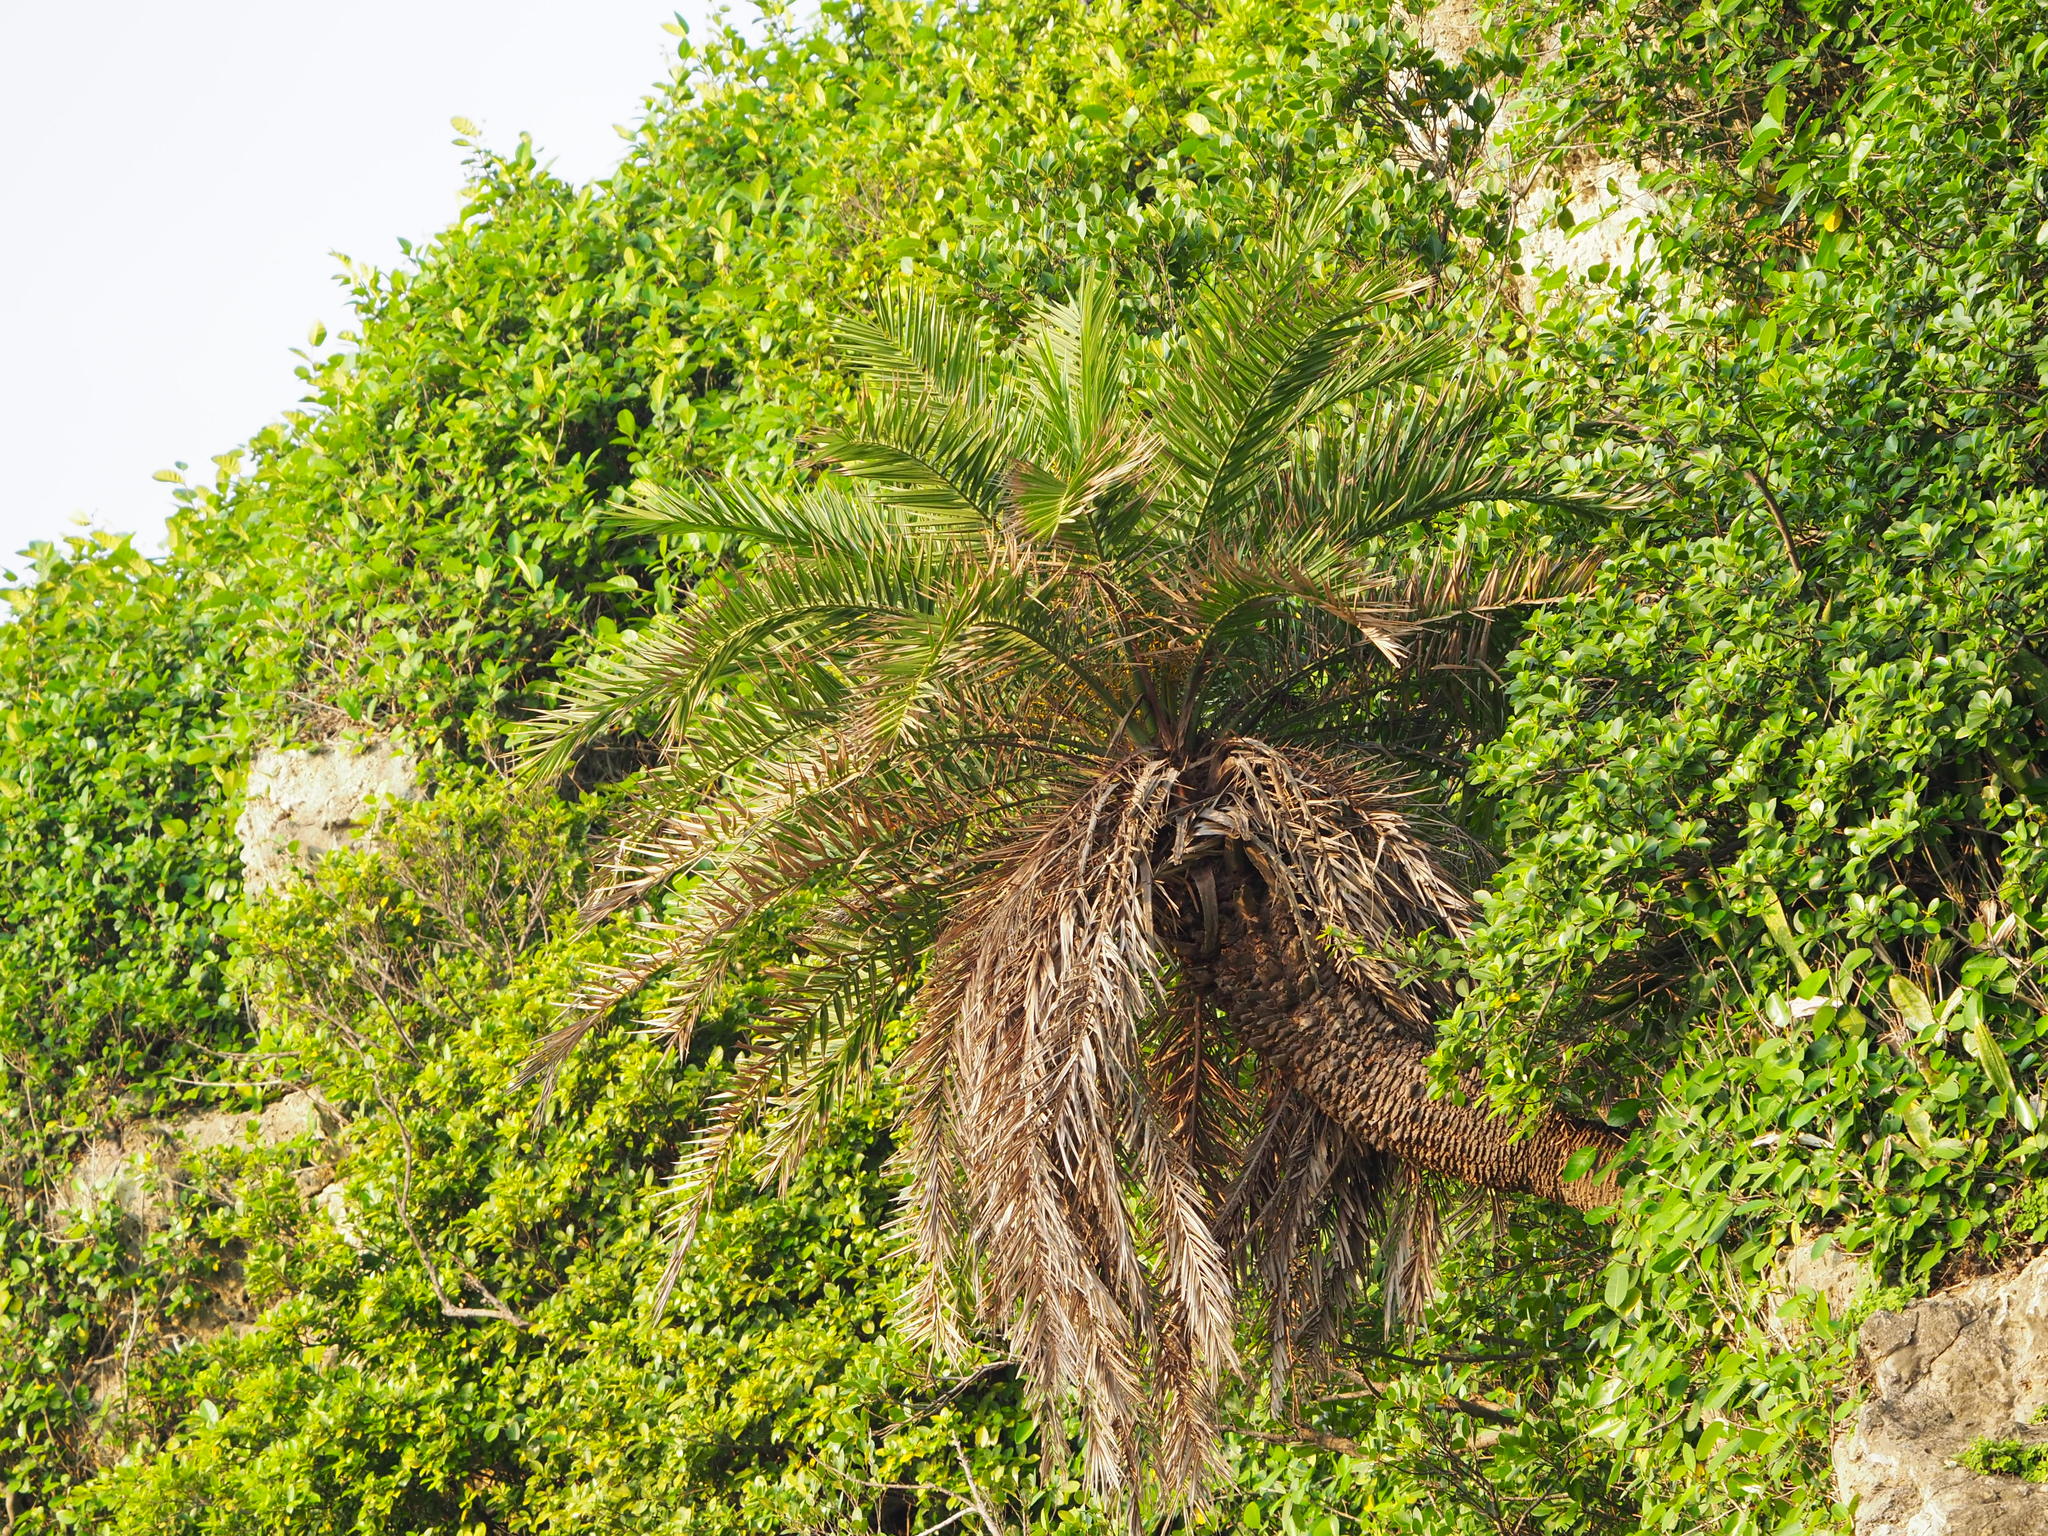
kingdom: Plantae
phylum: Tracheophyta
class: Liliopsida
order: Arecales
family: Arecaceae
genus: Phoenix
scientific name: Phoenix loureiroi
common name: Loureiro's palm
